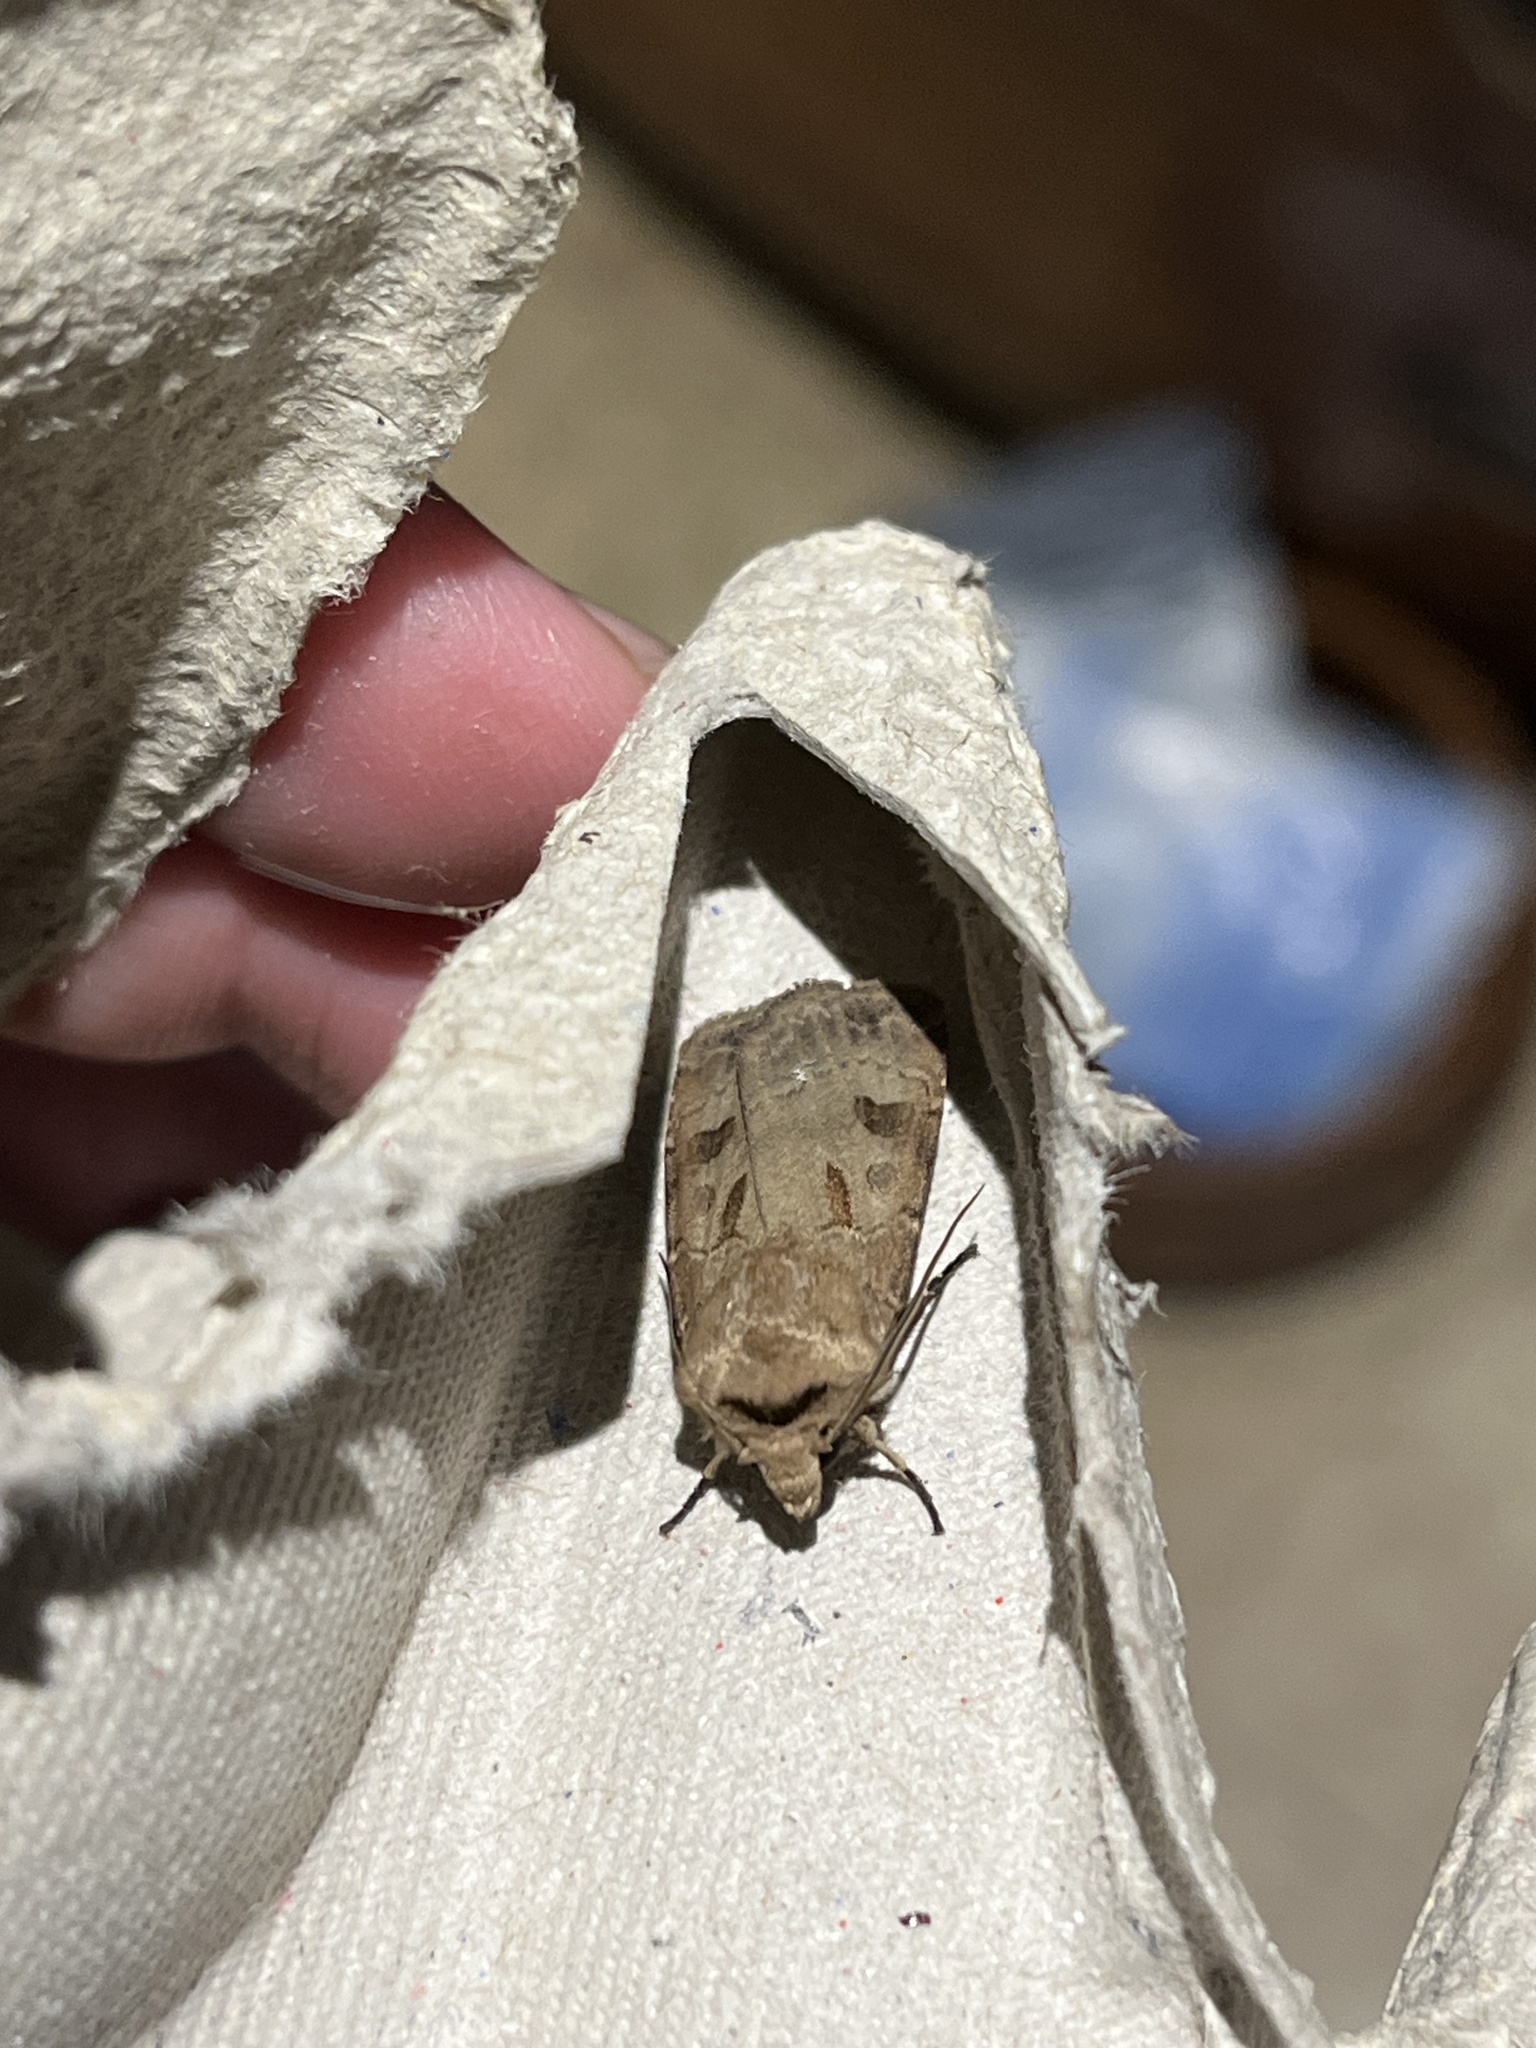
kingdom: Animalia
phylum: Arthropoda
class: Insecta
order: Lepidoptera
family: Noctuidae
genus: Agrotis
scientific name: Agrotis exclamationis
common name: Heart and dart
